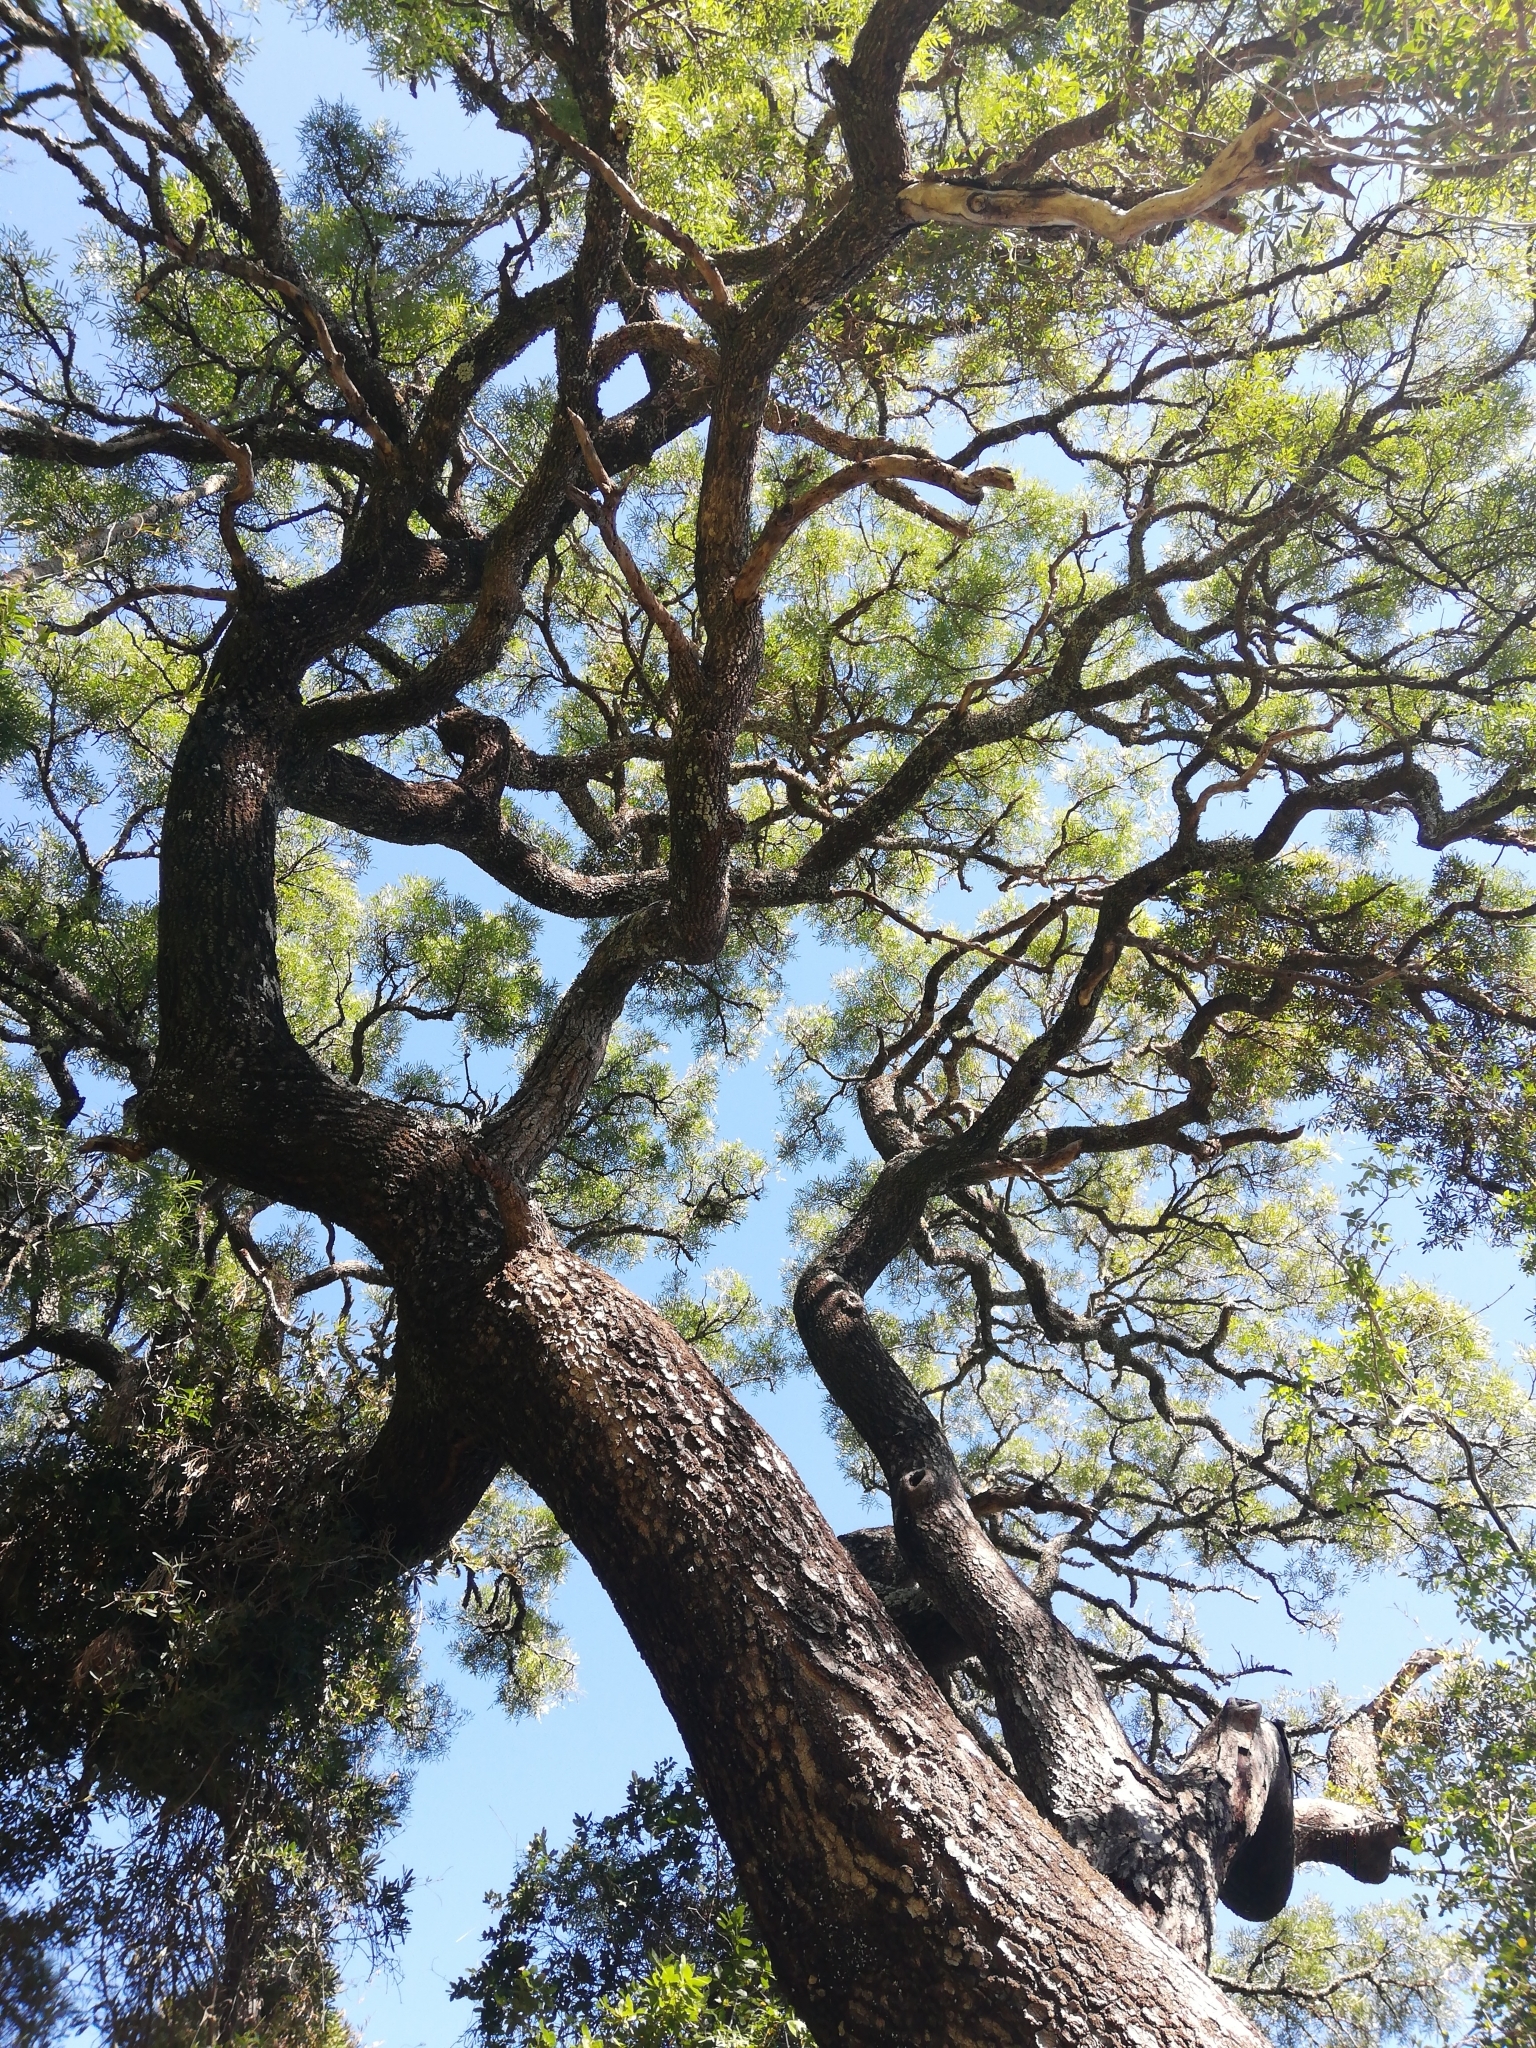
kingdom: Plantae
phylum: Tracheophyta
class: Magnoliopsida
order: Sapindales
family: Anacardiaceae
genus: Loxostylis
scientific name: Loxostylis alata
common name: Wild peppertree
